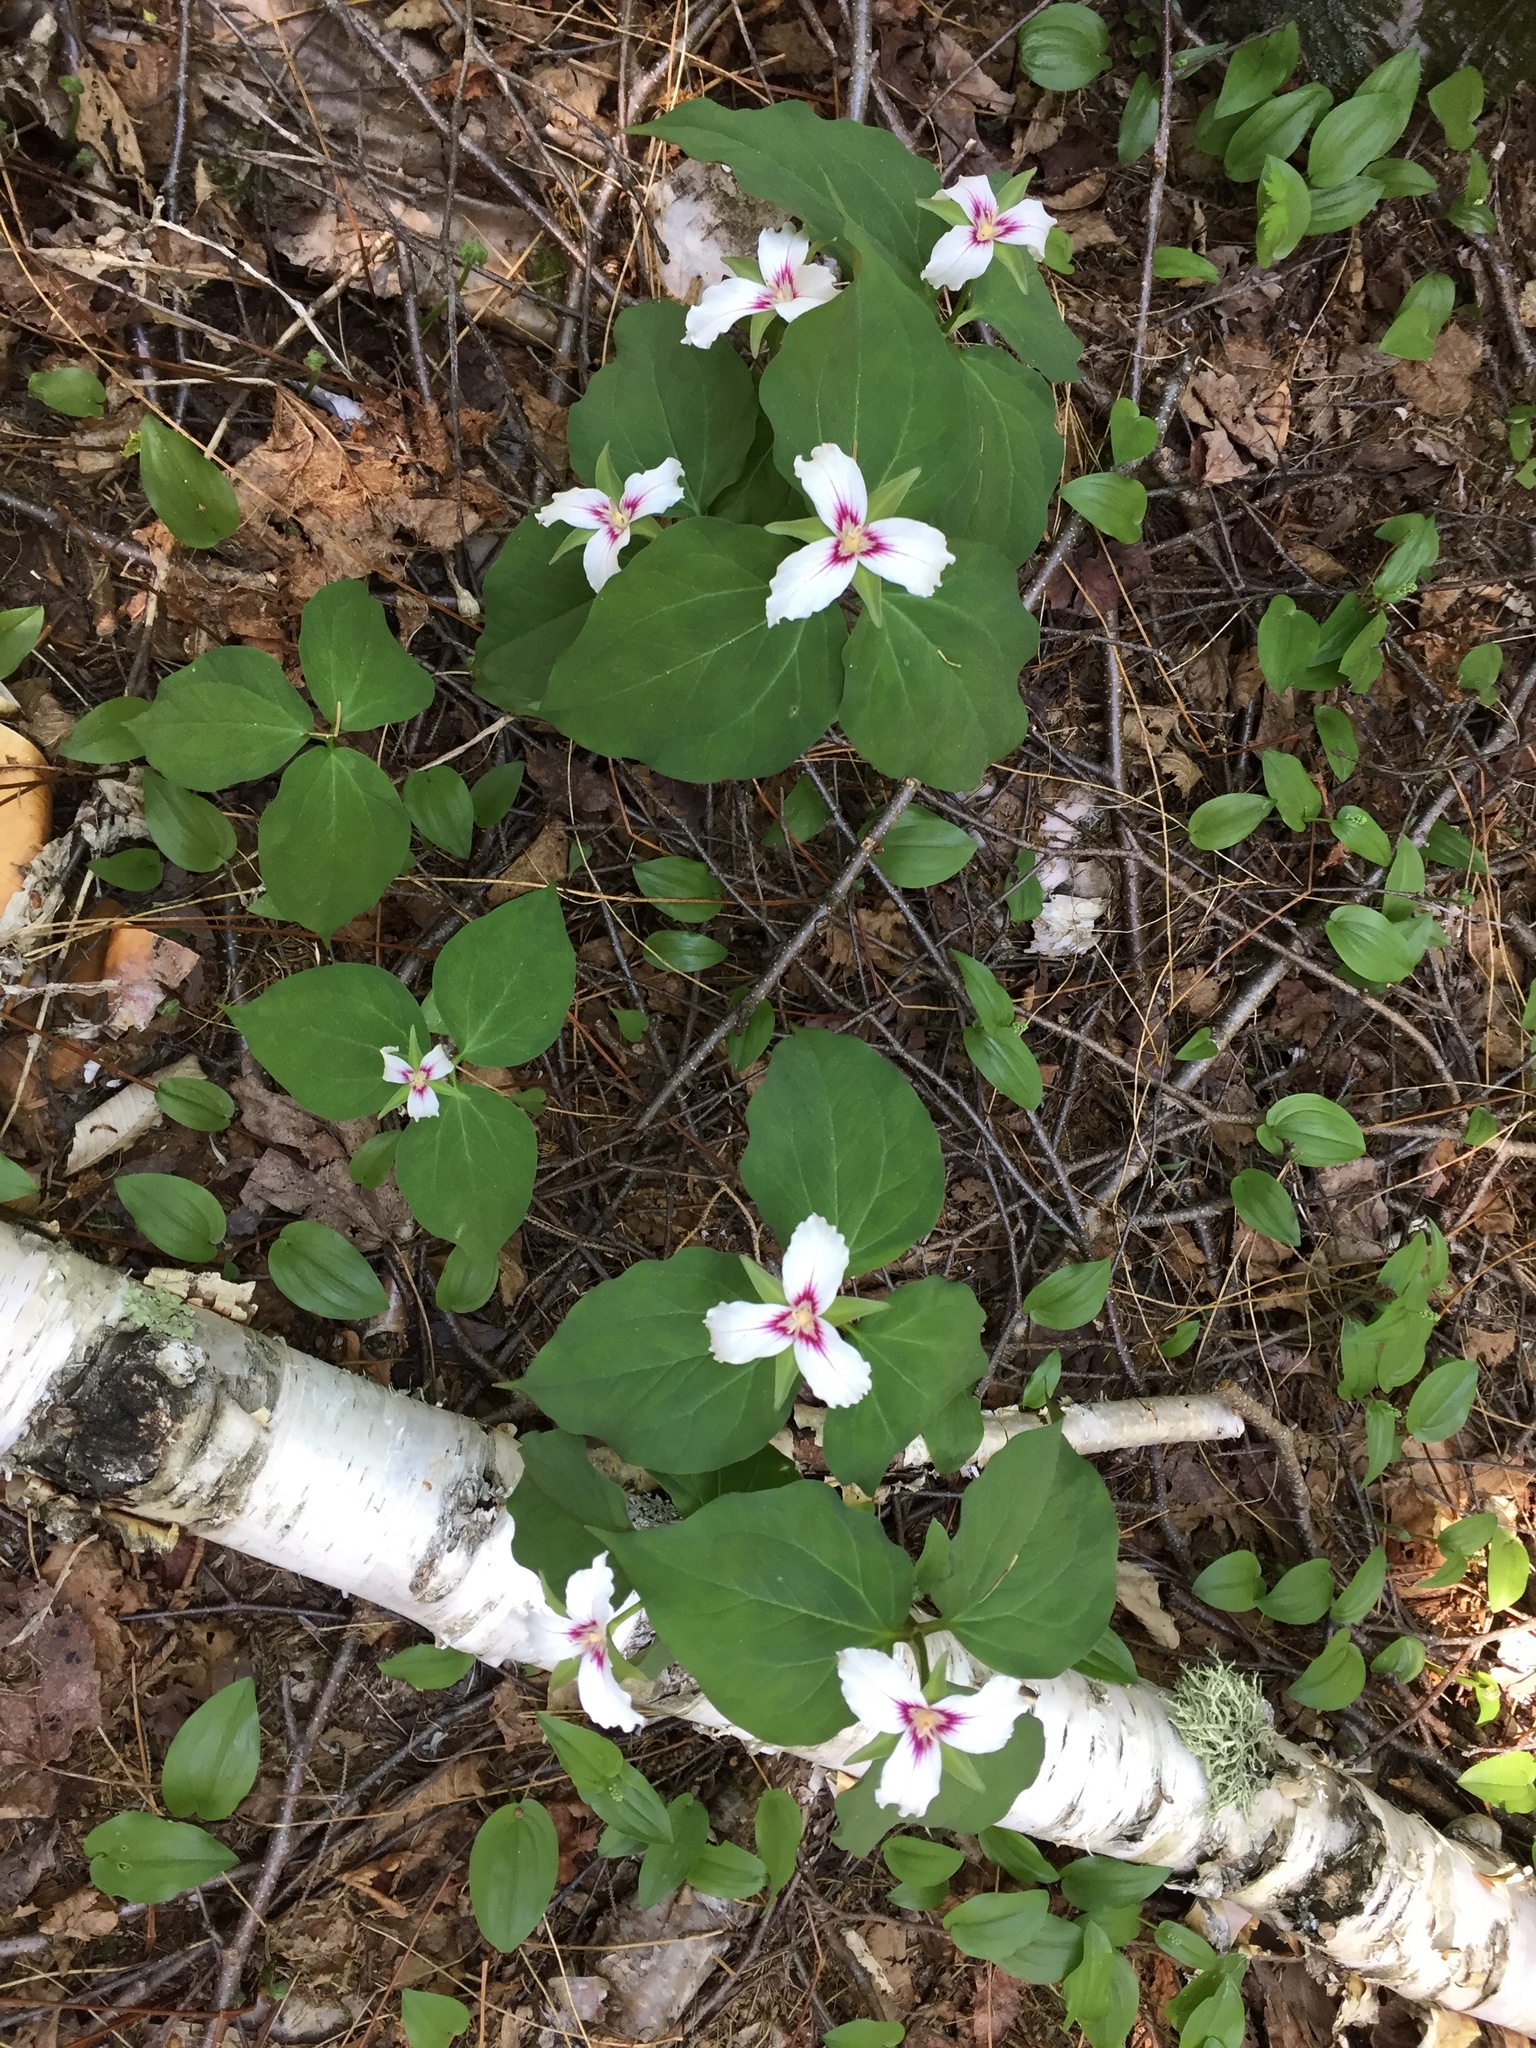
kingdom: Plantae
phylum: Tracheophyta
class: Liliopsida
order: Liliales
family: Melanthiaceae
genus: Trillium
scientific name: Trillium undulatum
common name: Paint trillium
